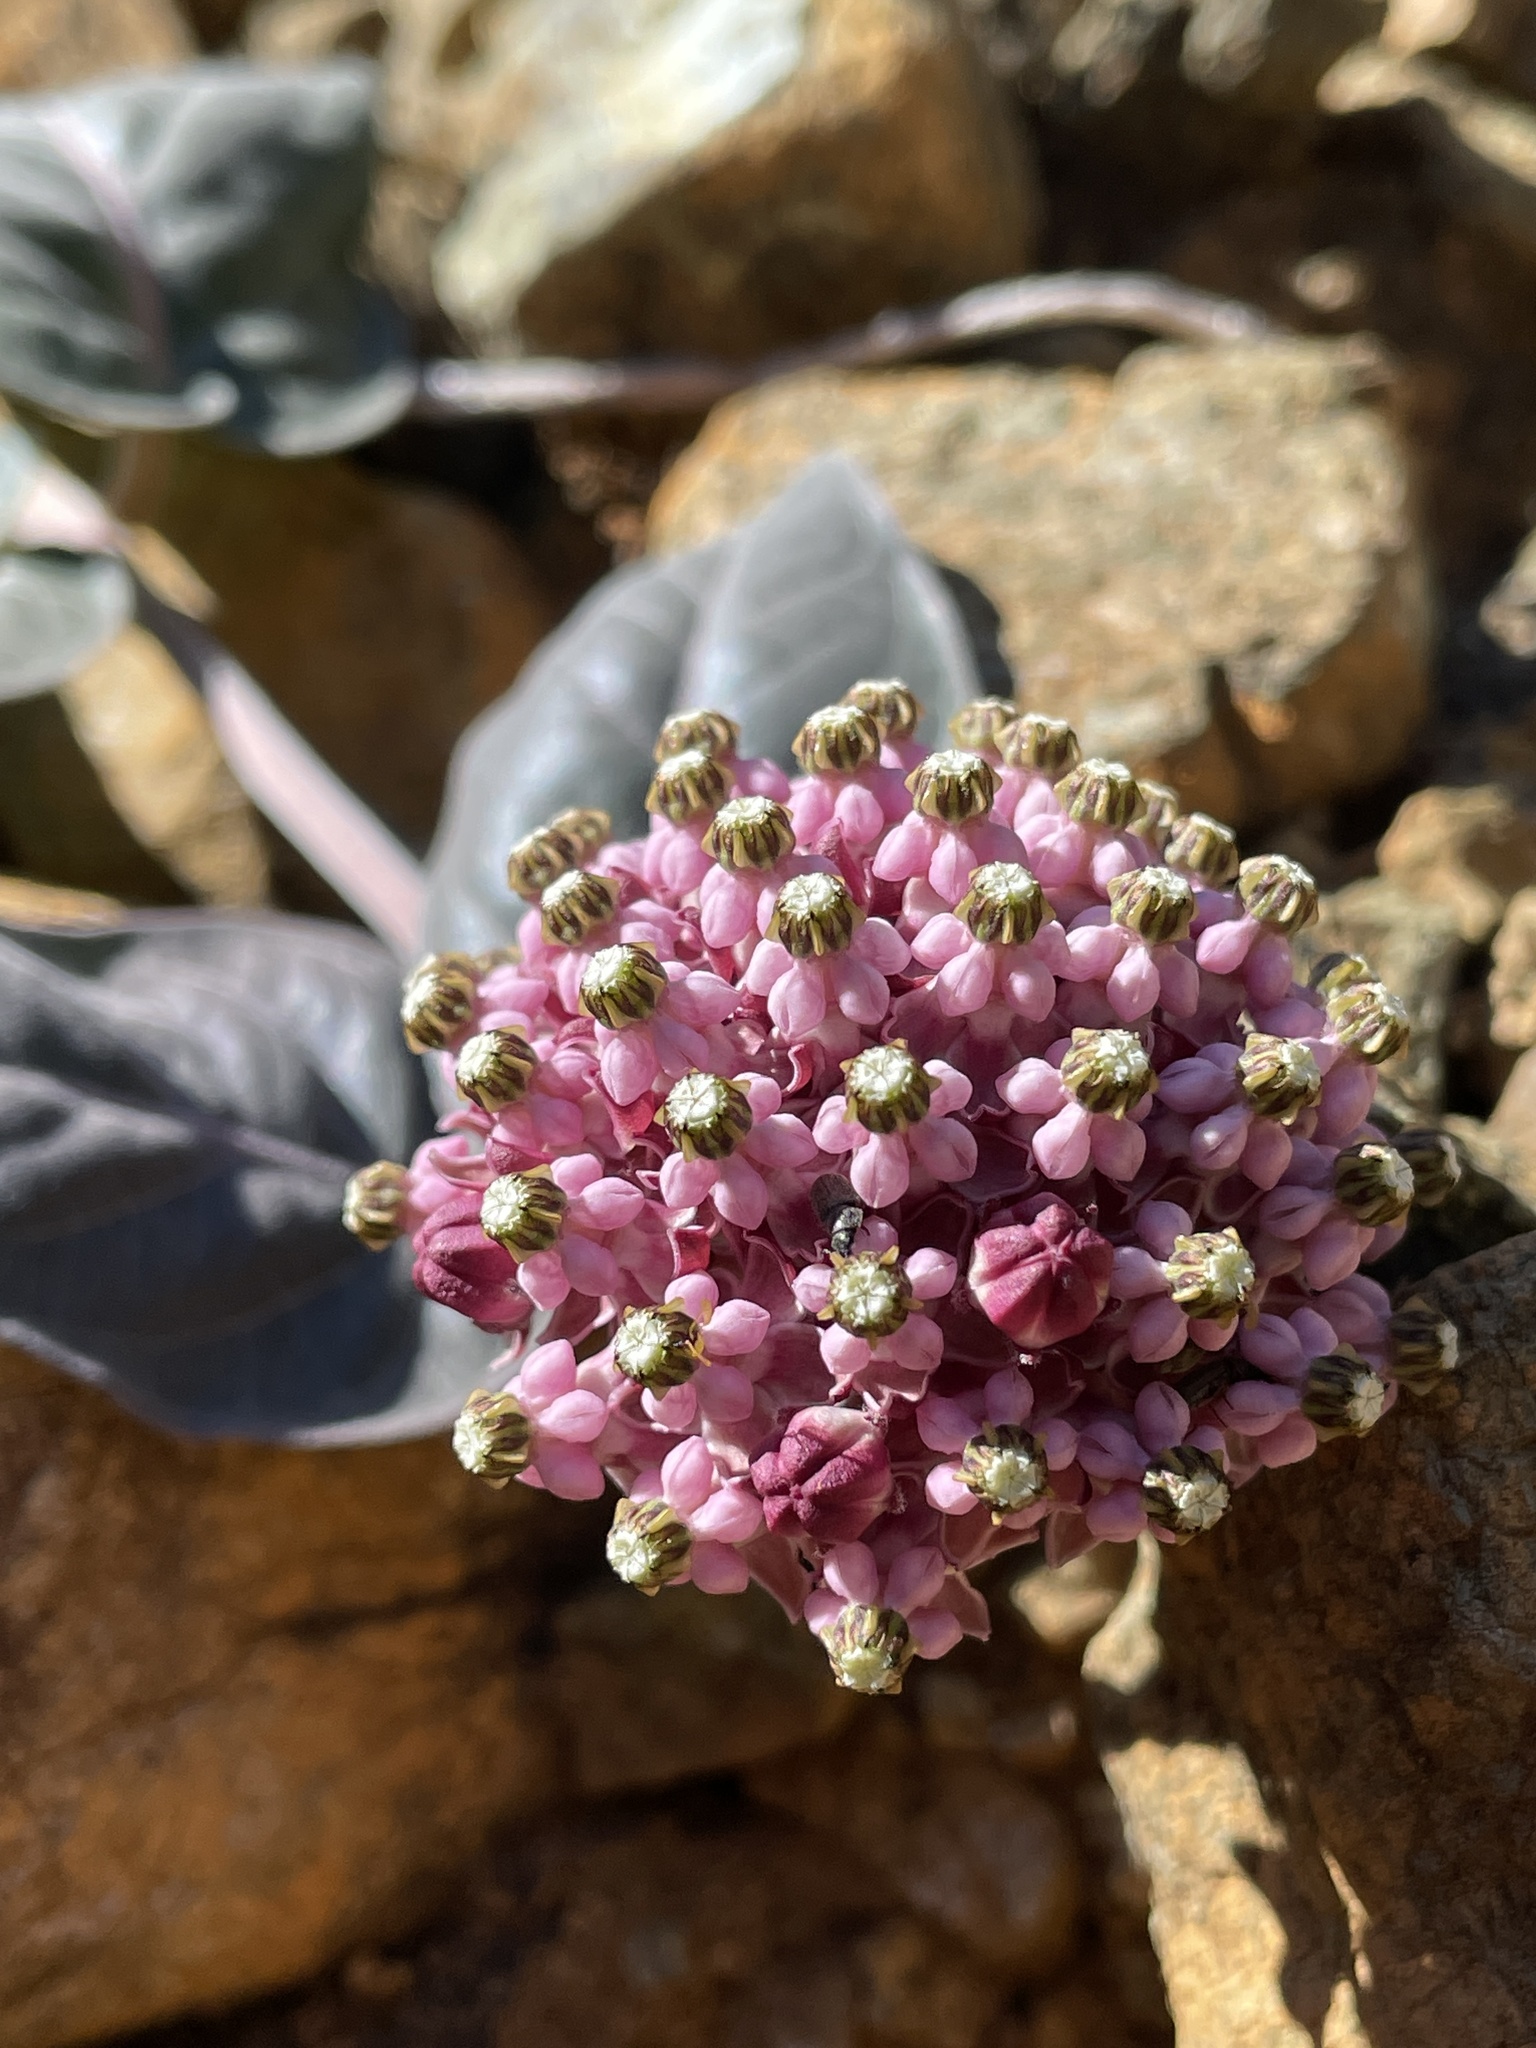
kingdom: Plantae
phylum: Tracheophyta
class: Magnoliopsida
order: Gentianales
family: Apocynaceae
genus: Asclepias
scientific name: Asclepias solanoana
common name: Serpentine milkweed
